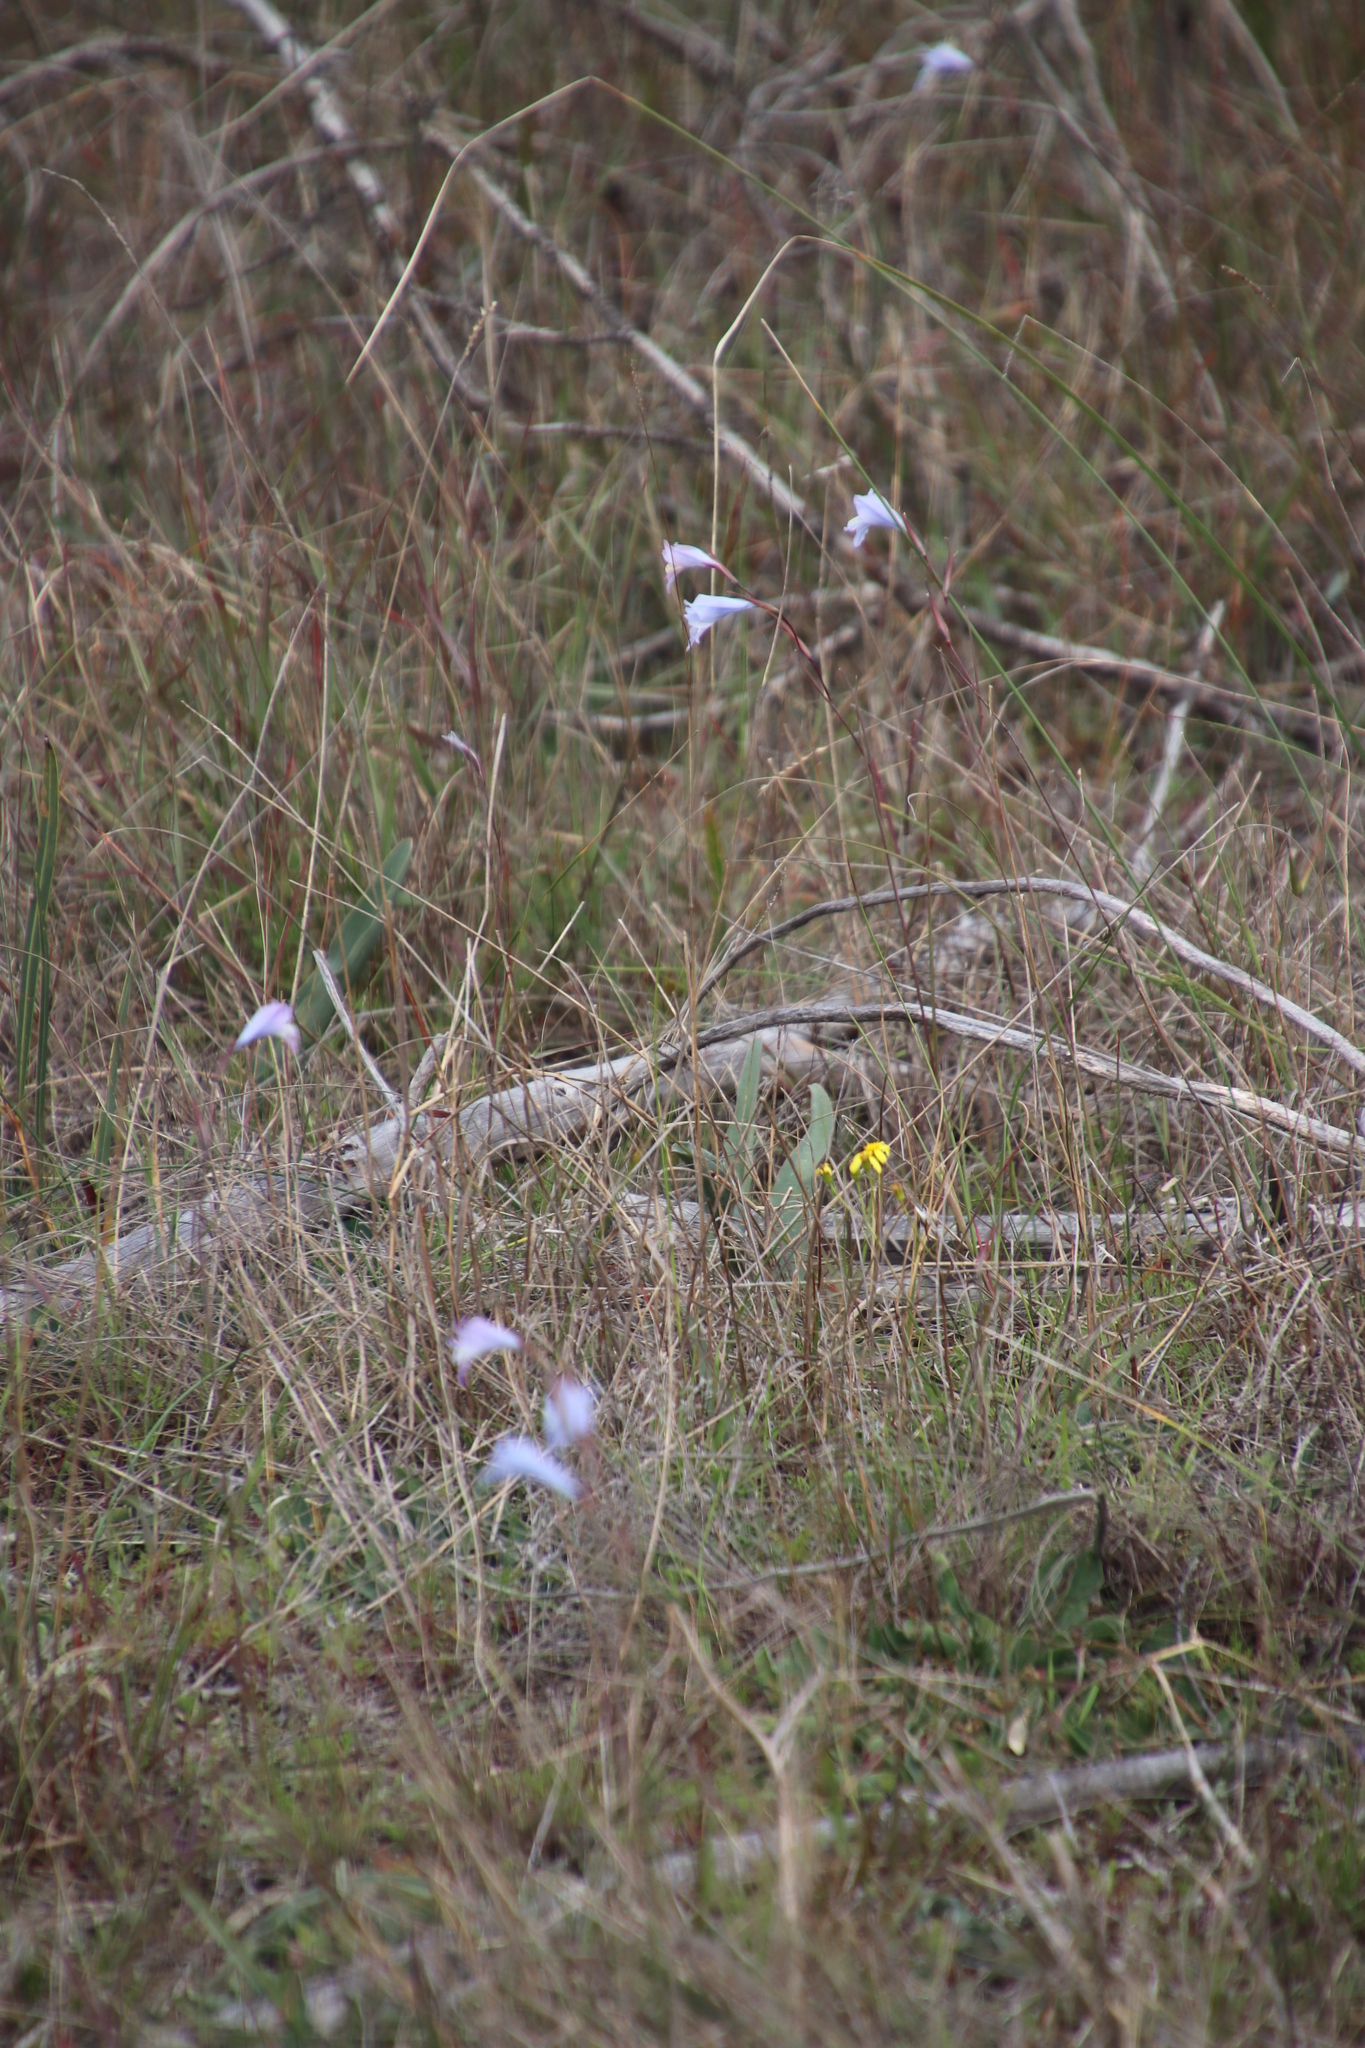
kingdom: Plantae
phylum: Tracheophyta
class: Liliopsida
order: Asparagales
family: Iridaceae
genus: Gladiolus
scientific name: Gladiolus gracilis
